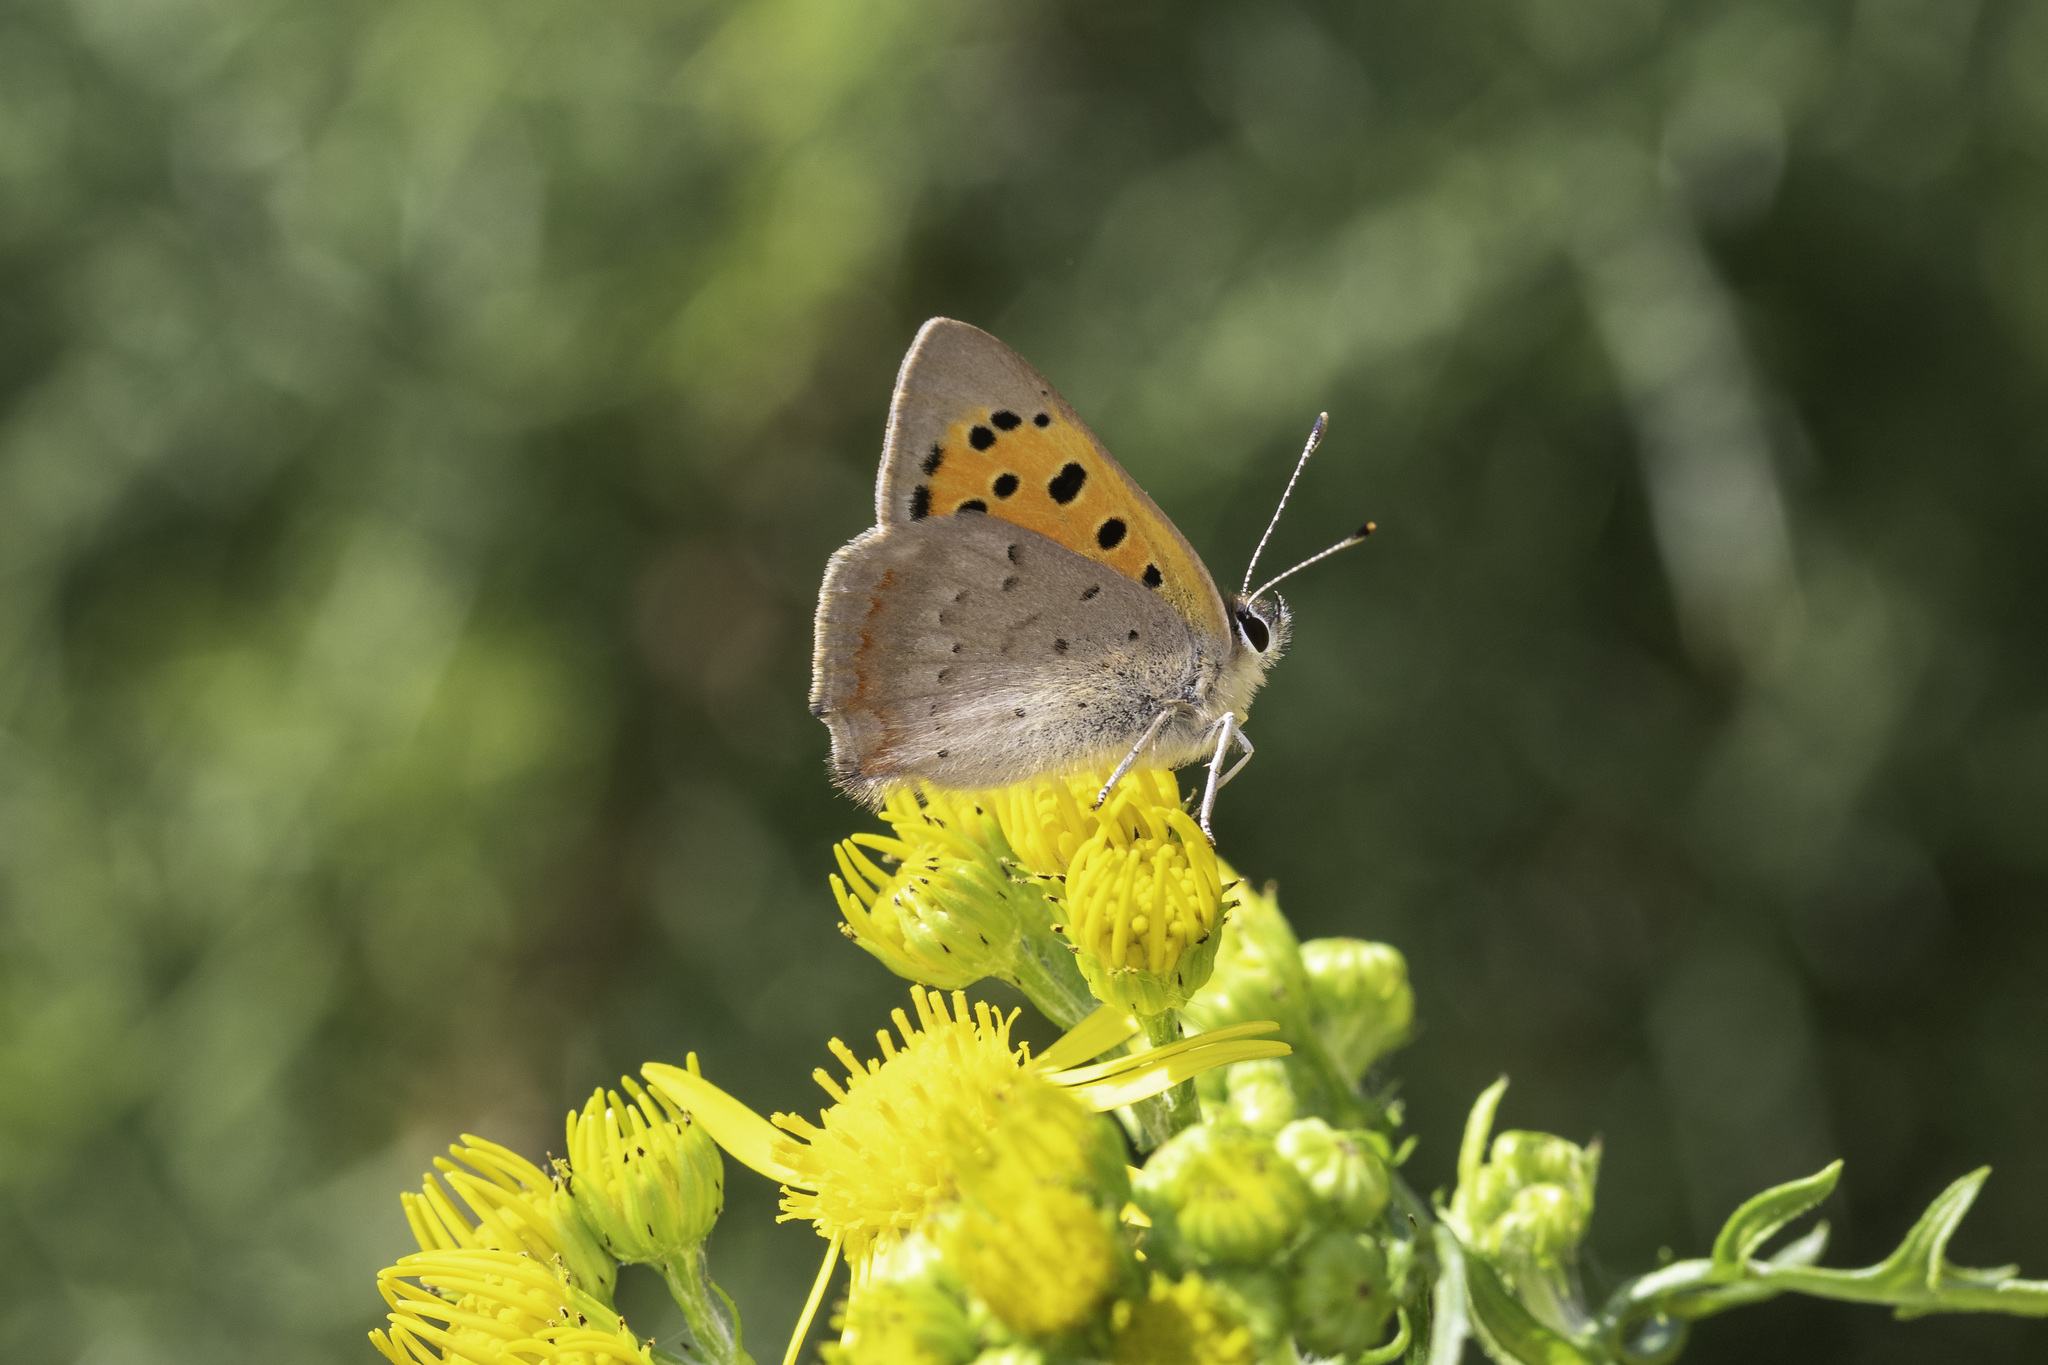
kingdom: Animalia
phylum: Arthropoda
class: Insecta
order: Lepidoptera
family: Lycaenidae
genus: Lycaena
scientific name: Lycaena phlaeas
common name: Small copper
